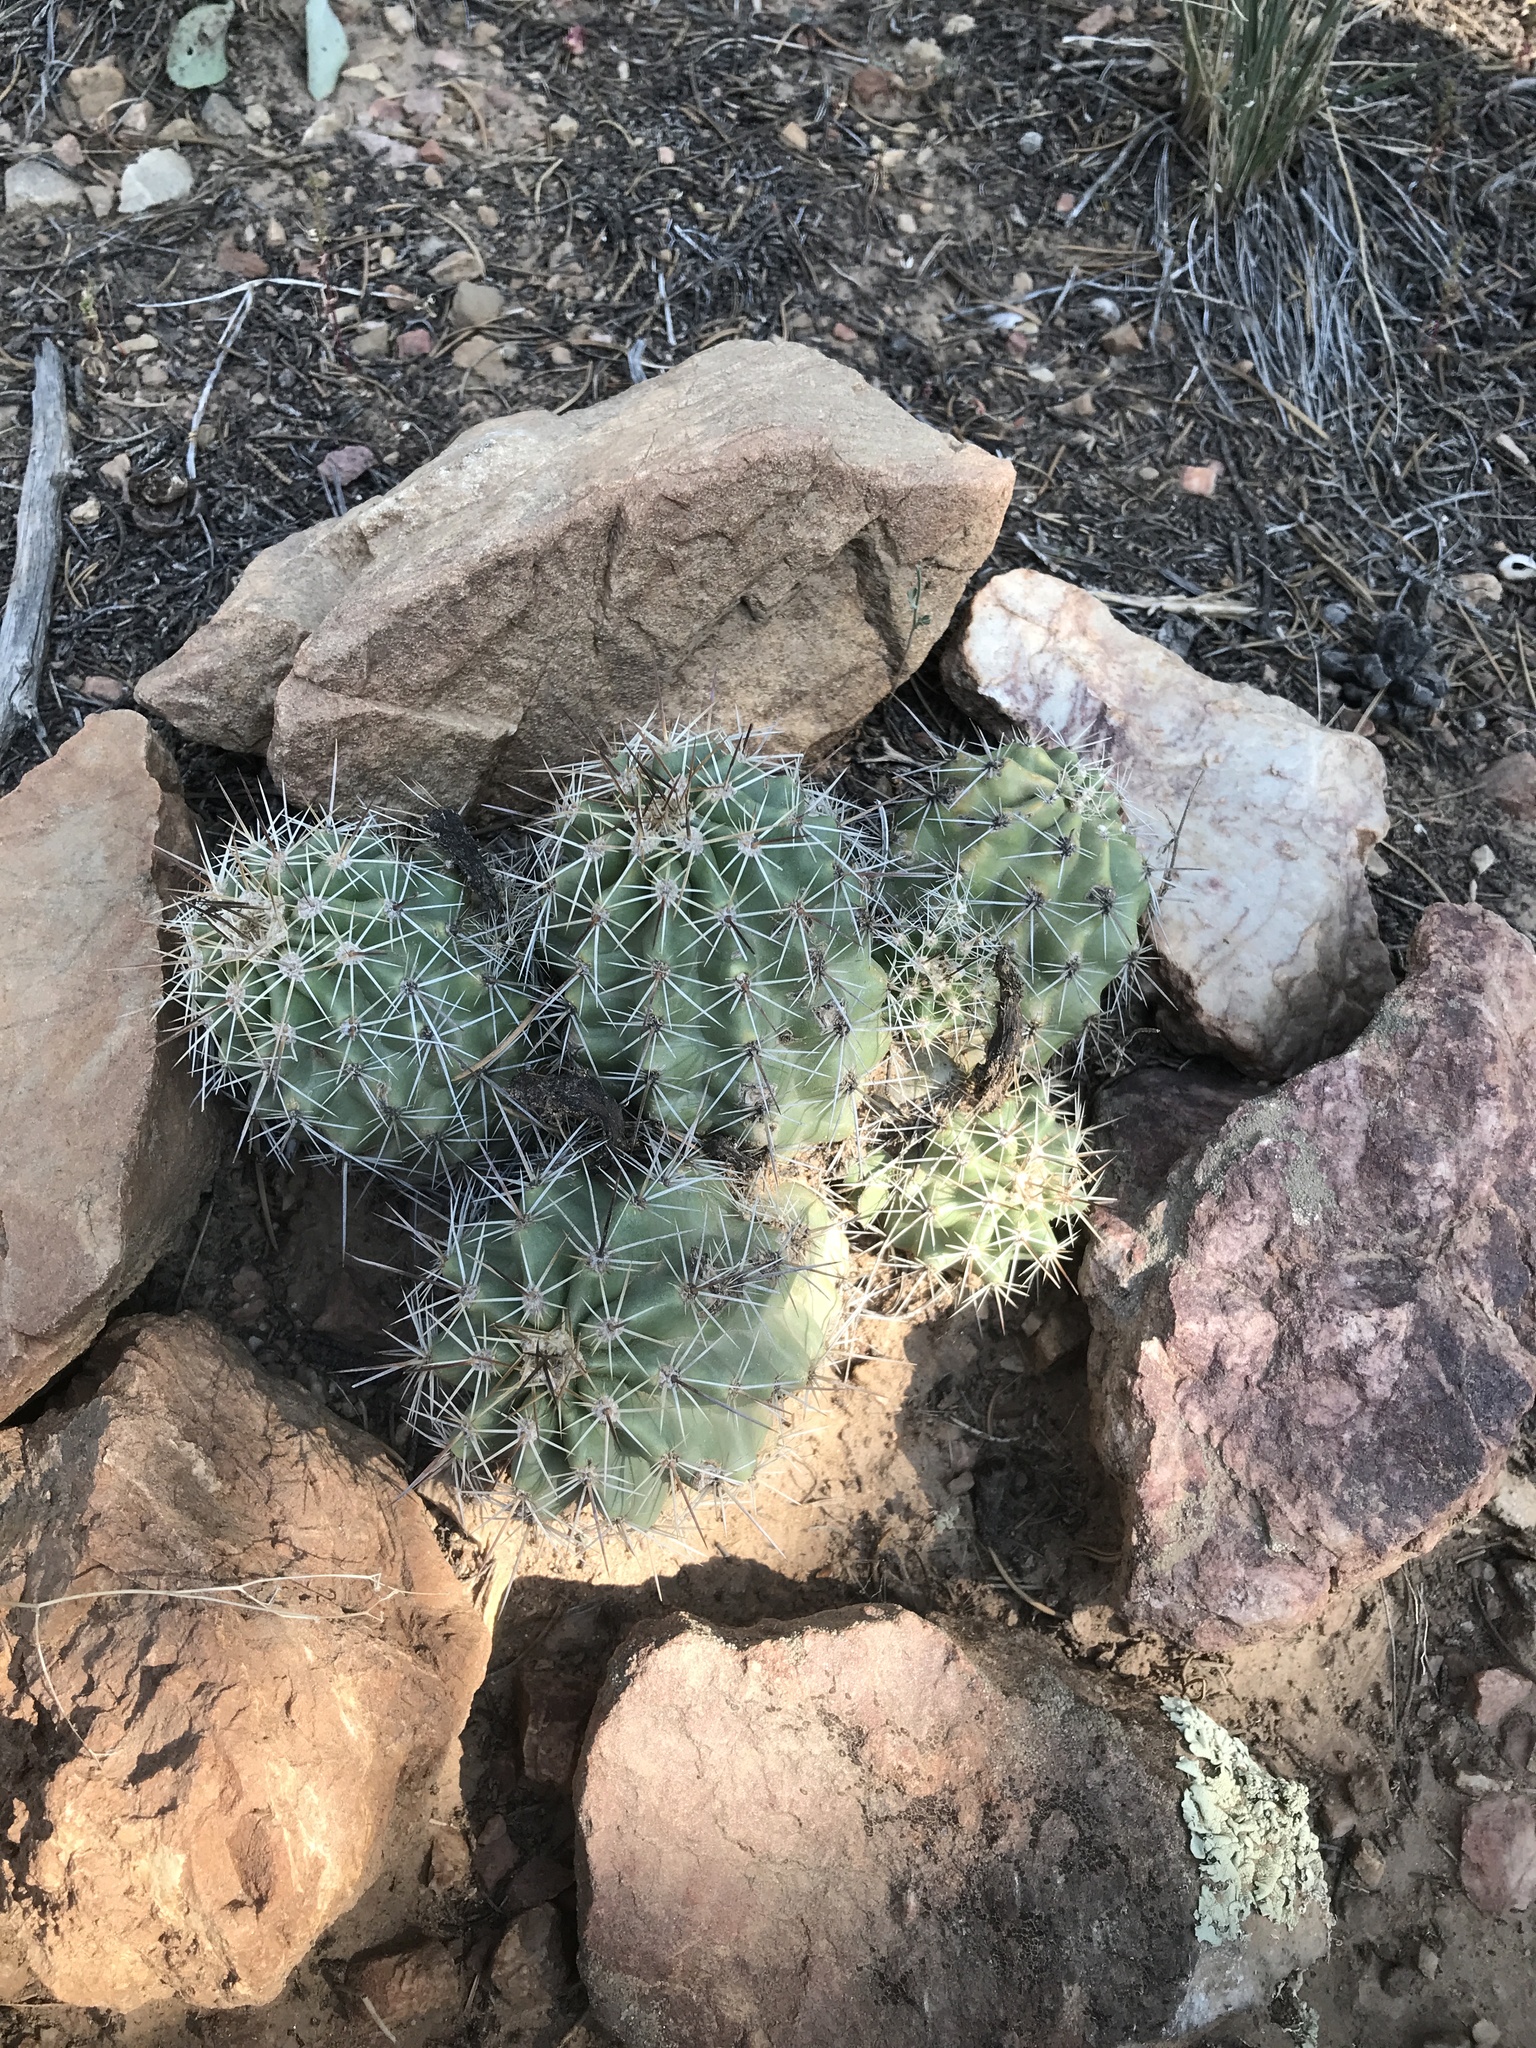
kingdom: Plantae
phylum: Tracheophyta
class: Magnoliopsida
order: Caryophyllales
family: Cactaceae
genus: Echinocereus
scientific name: Echinocereus coccineus
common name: Scarlet hedgehog cactus
